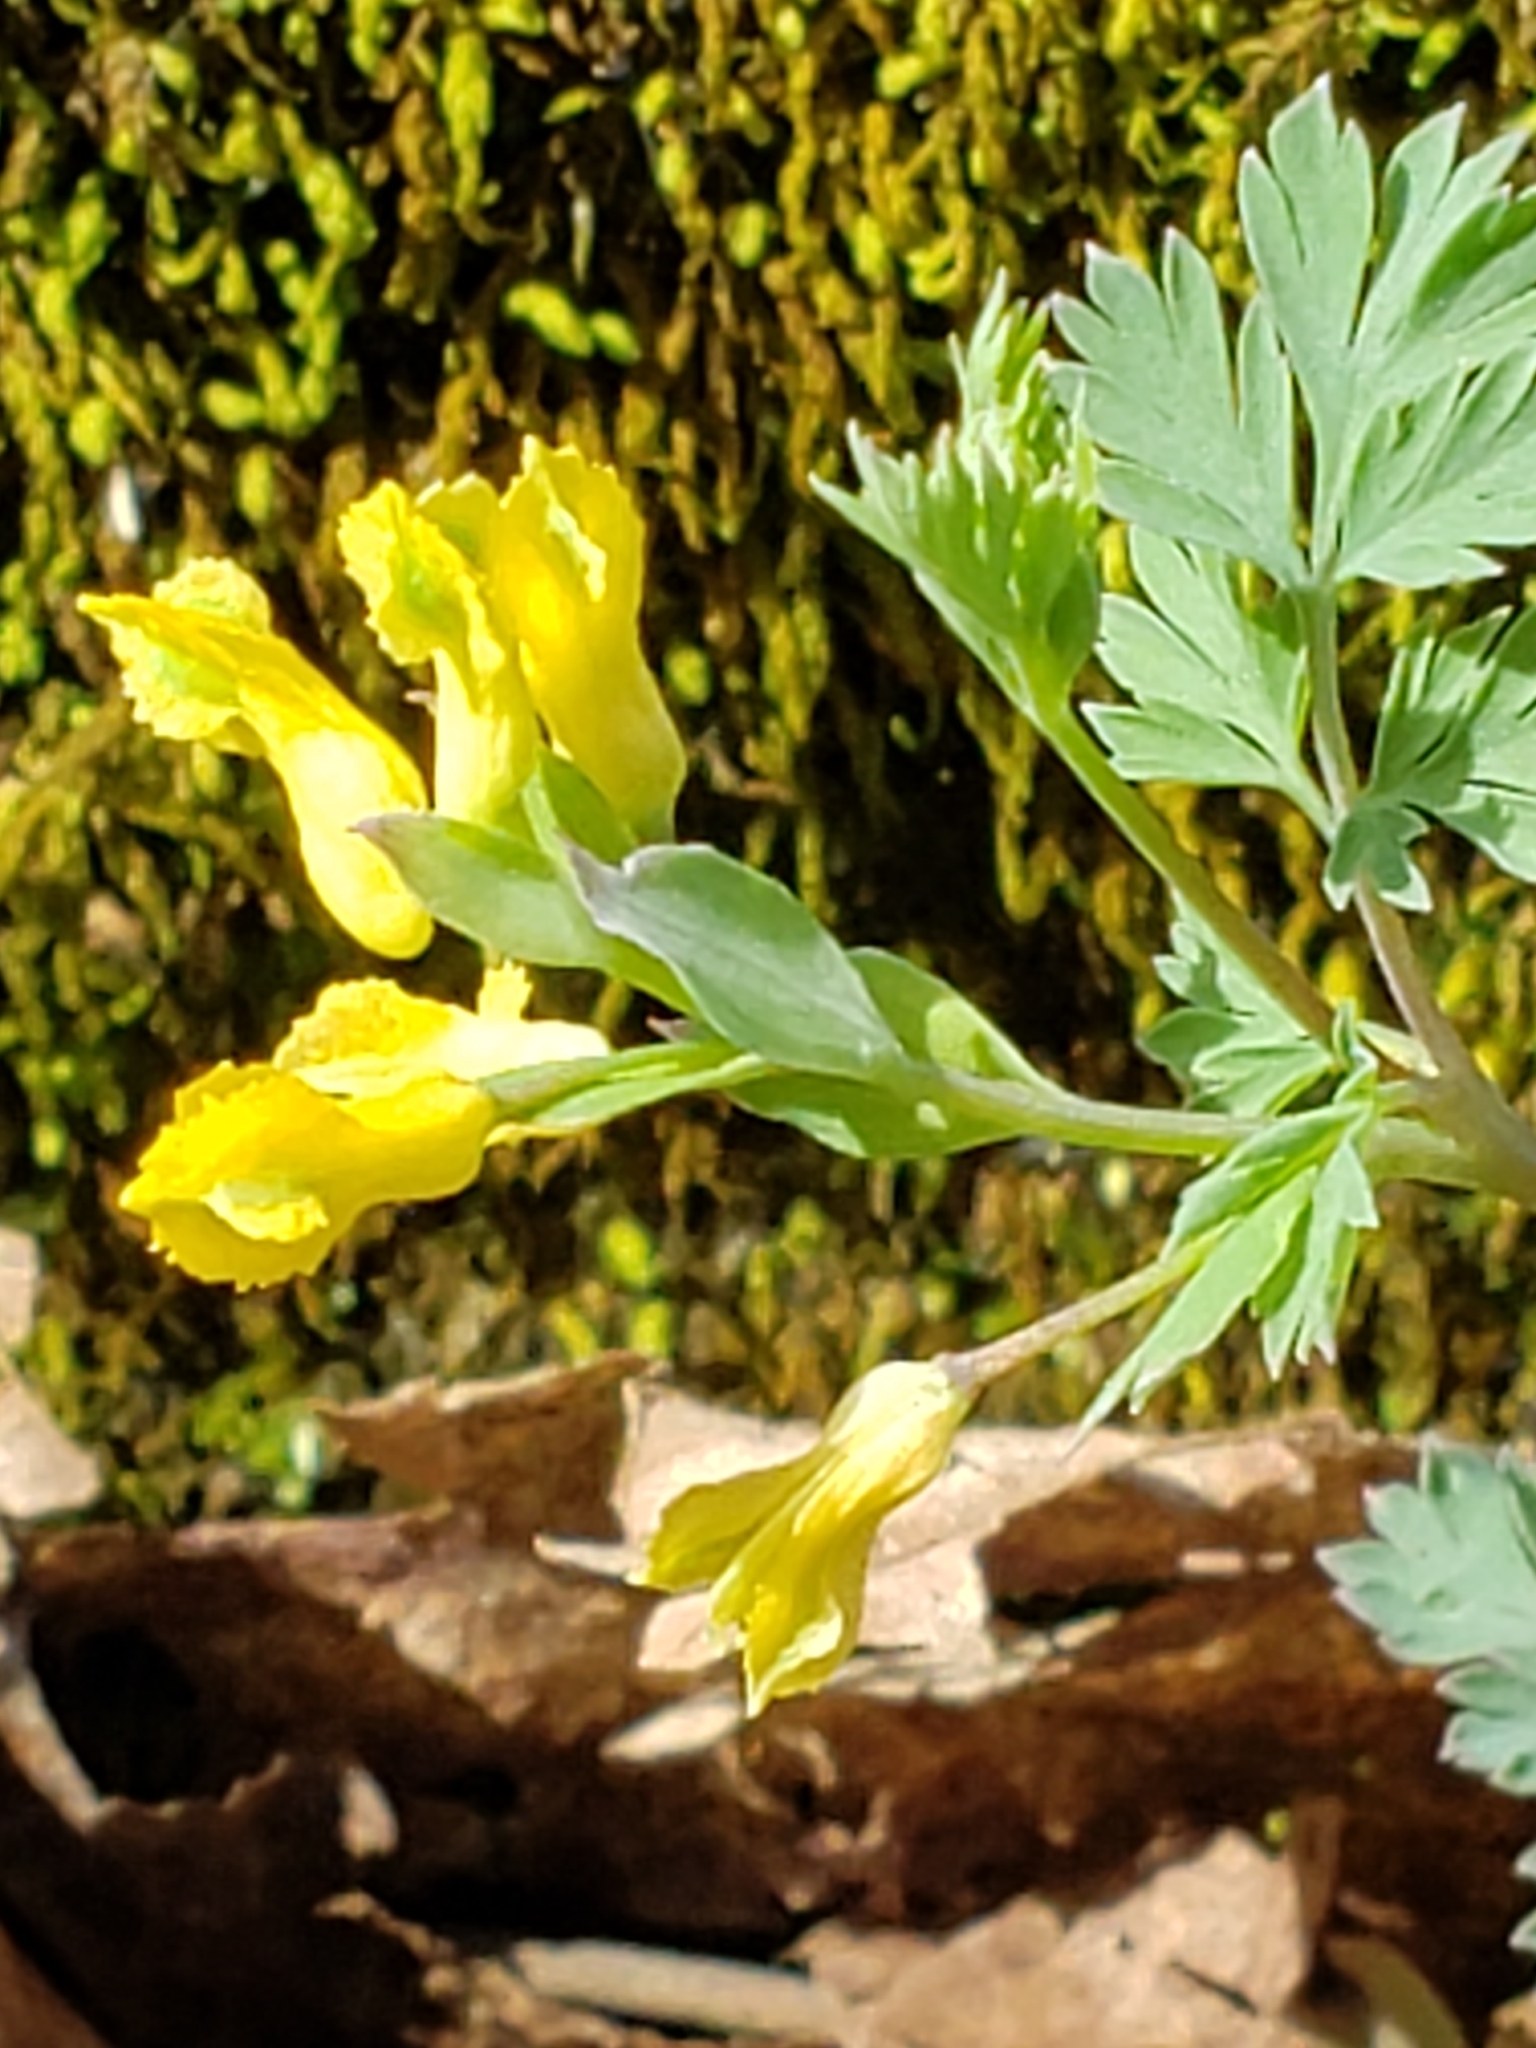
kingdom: Plantae
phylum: Tracheophyta
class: Magnoliopsida
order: Ranunculales
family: Papaveraceae
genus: Corydalis
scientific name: Corydalis flavula
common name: Yellow corydalis
